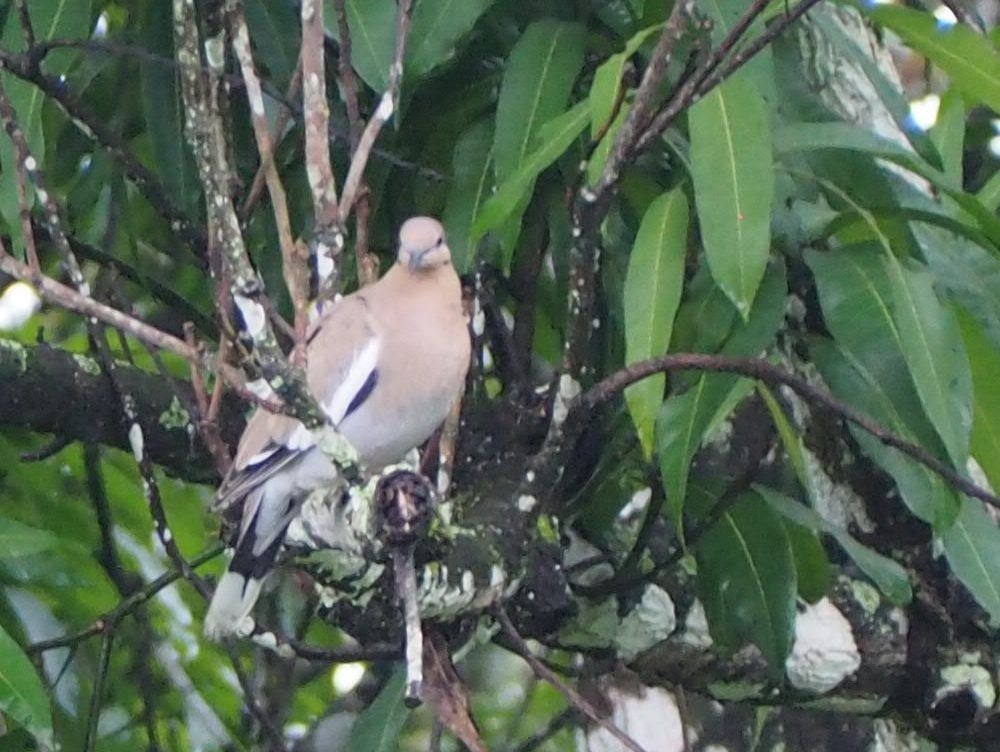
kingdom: Animalia
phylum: Chordata
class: Aves
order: Columbiformes
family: Columbidae
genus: Zenaida
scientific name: Zenaida asiatica
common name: White-winged dove
